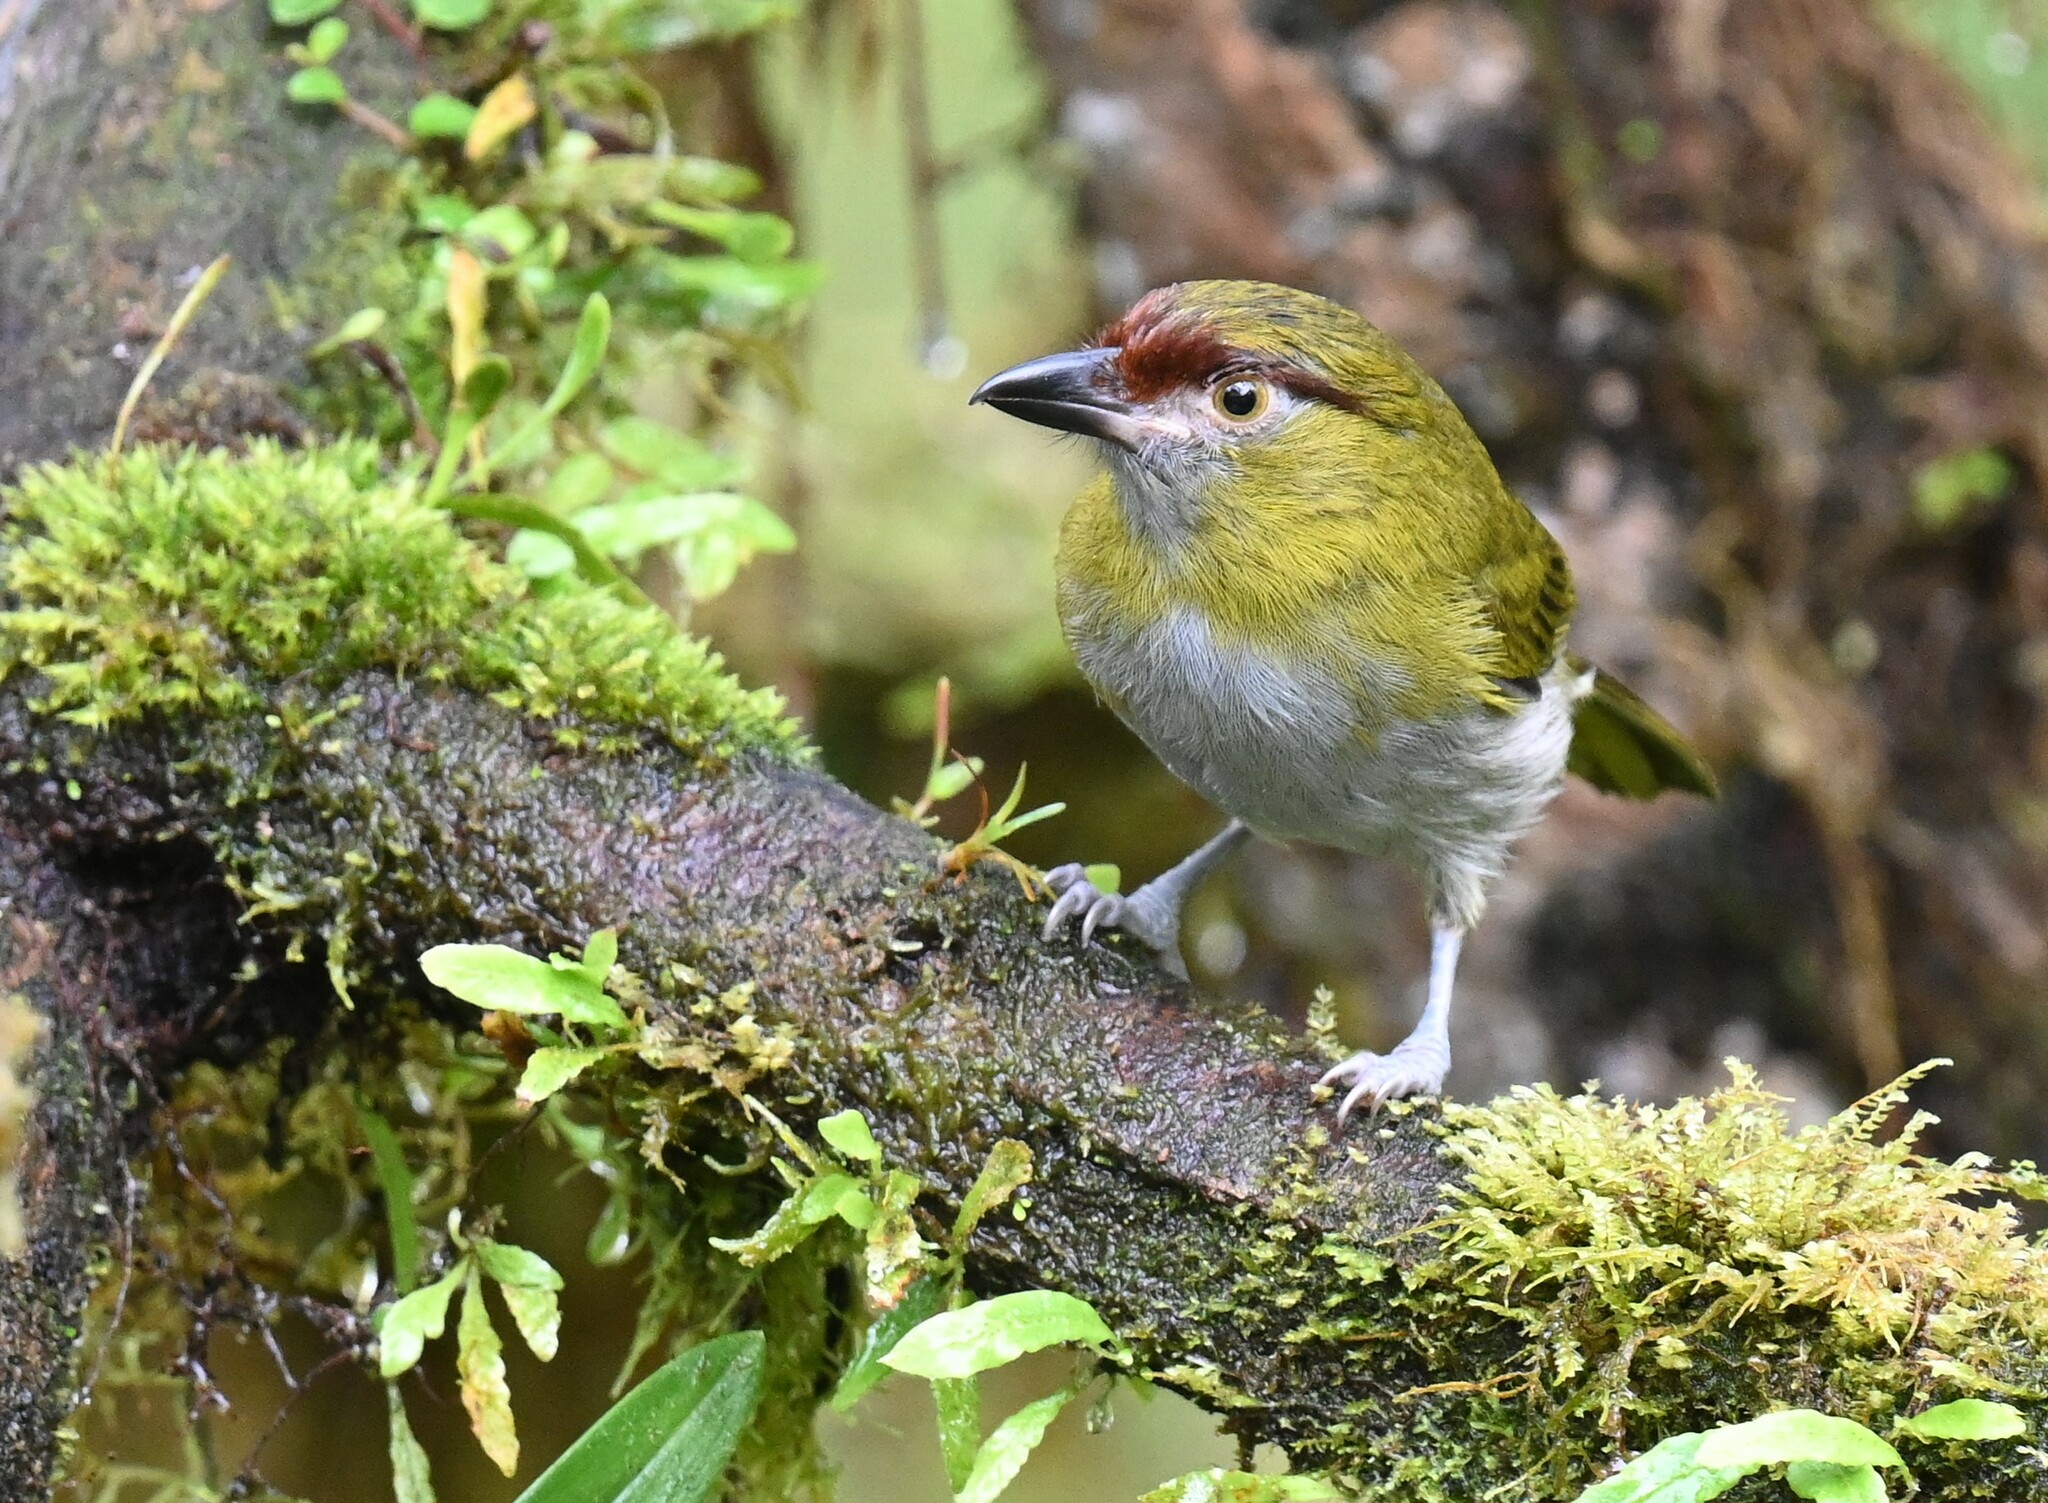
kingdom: Animalia
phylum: Chordata
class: Aves
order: Passeriformes
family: Vireonidae
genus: Cyclarhis
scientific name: Cyclarhis nigrirostris
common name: Black-billed peppershrike
